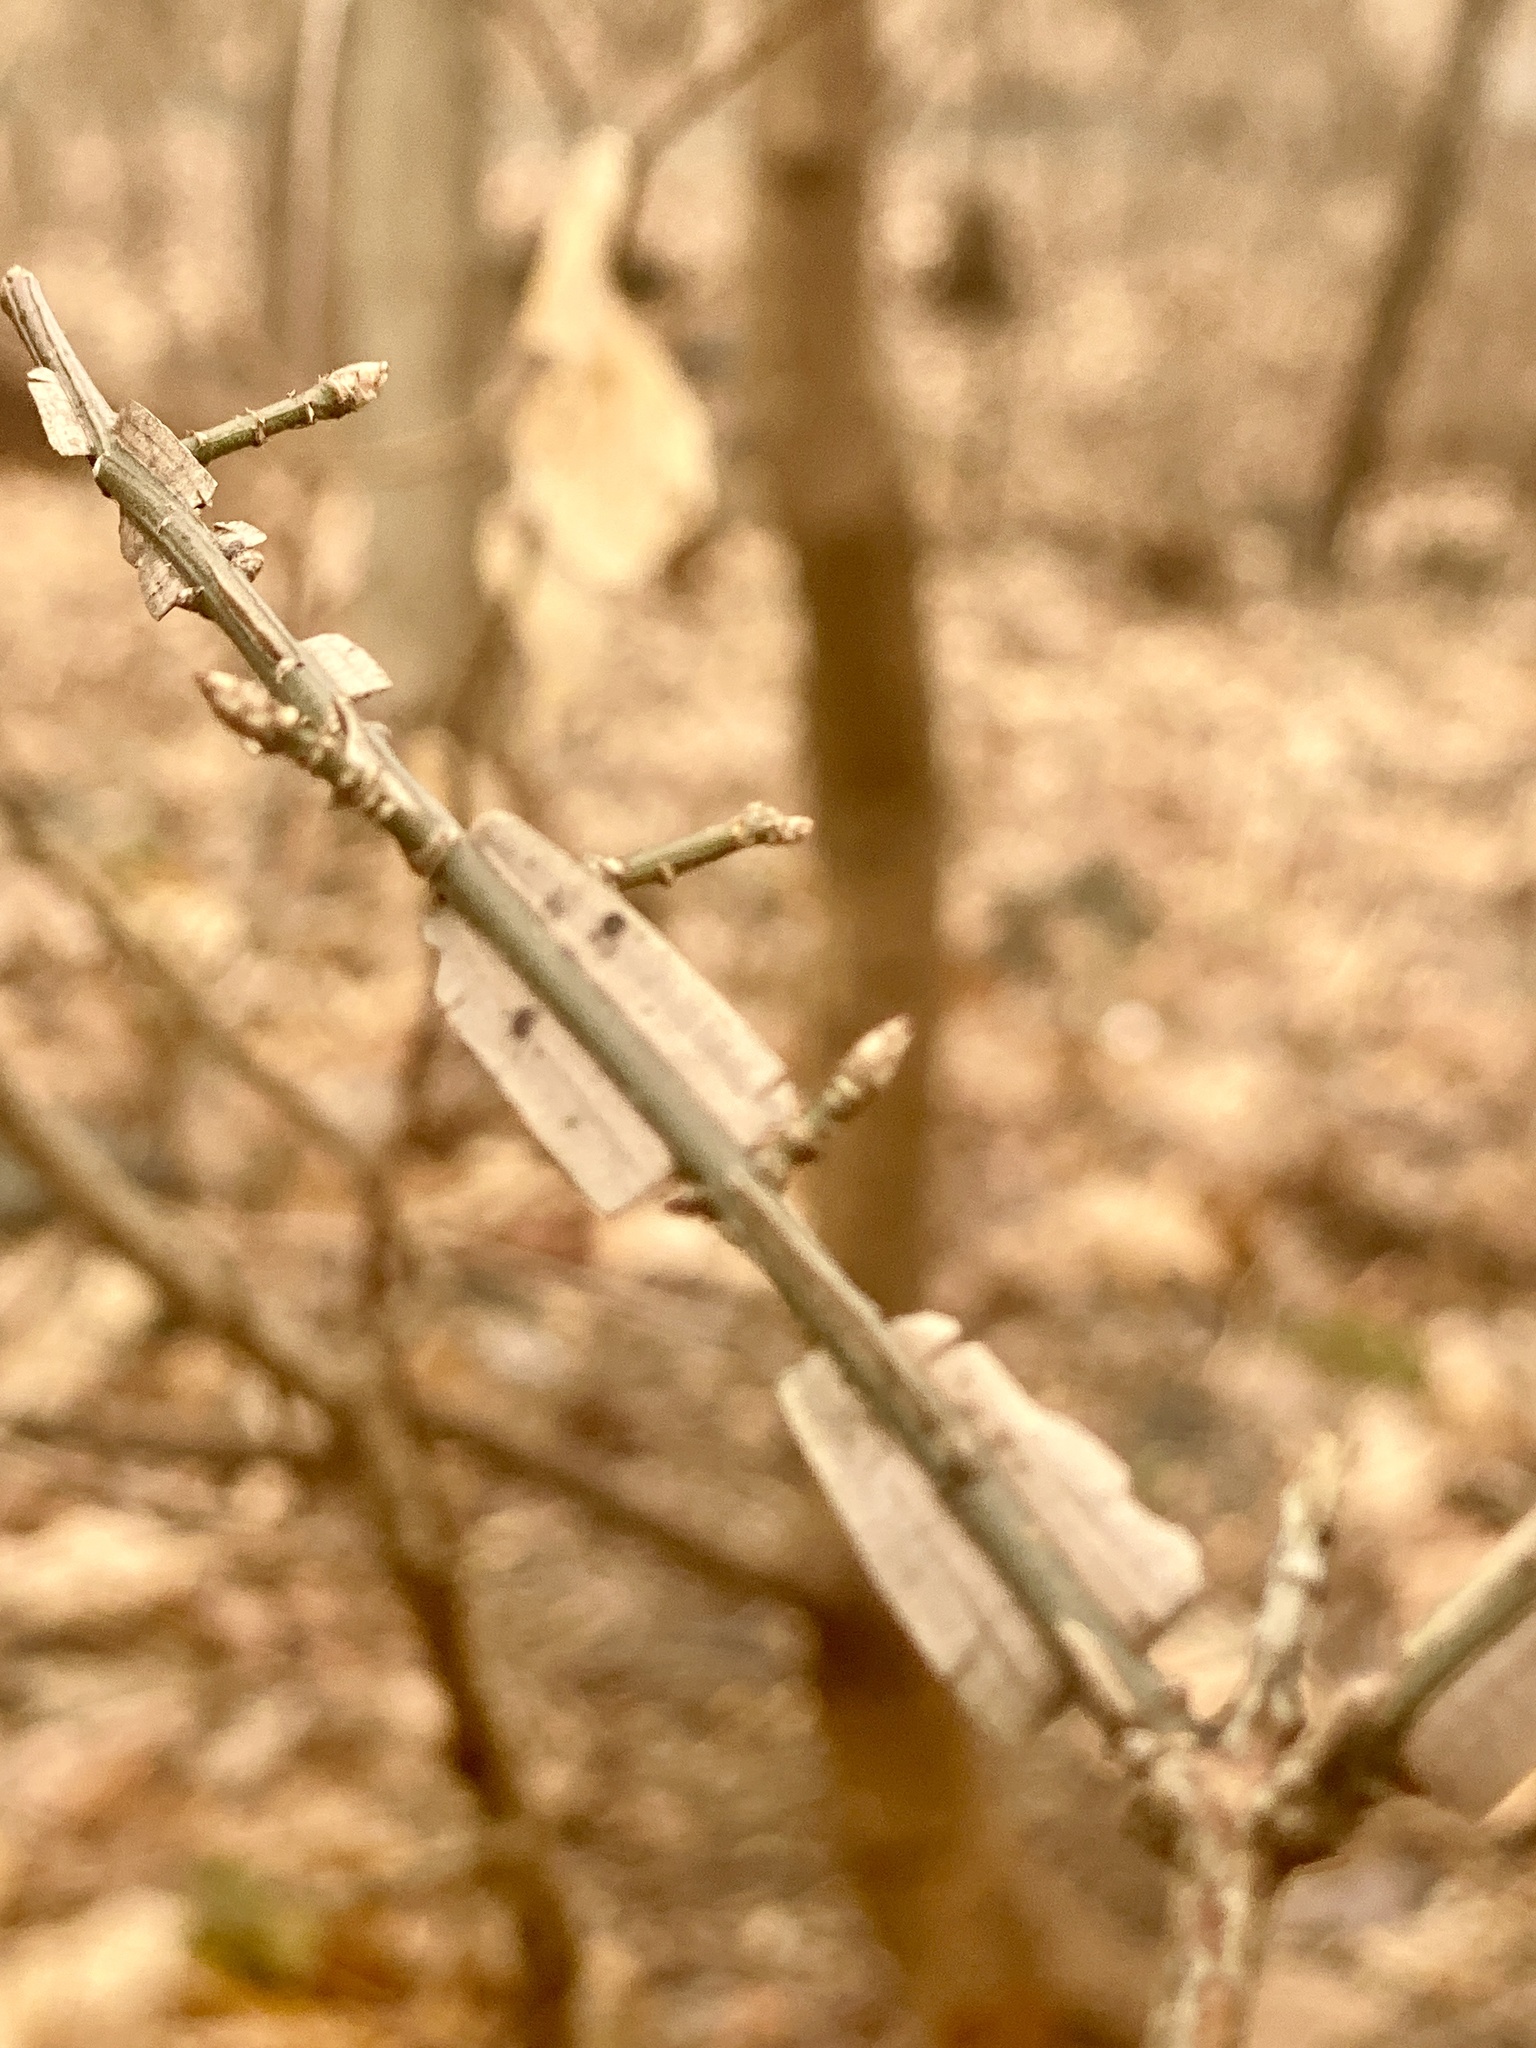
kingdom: Plantae
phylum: Tracheophyta
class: Magnoliopsida
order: Celastrales
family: Celastraceae
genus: Euonymus
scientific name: Euonymus alatus
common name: Winged euonymus
